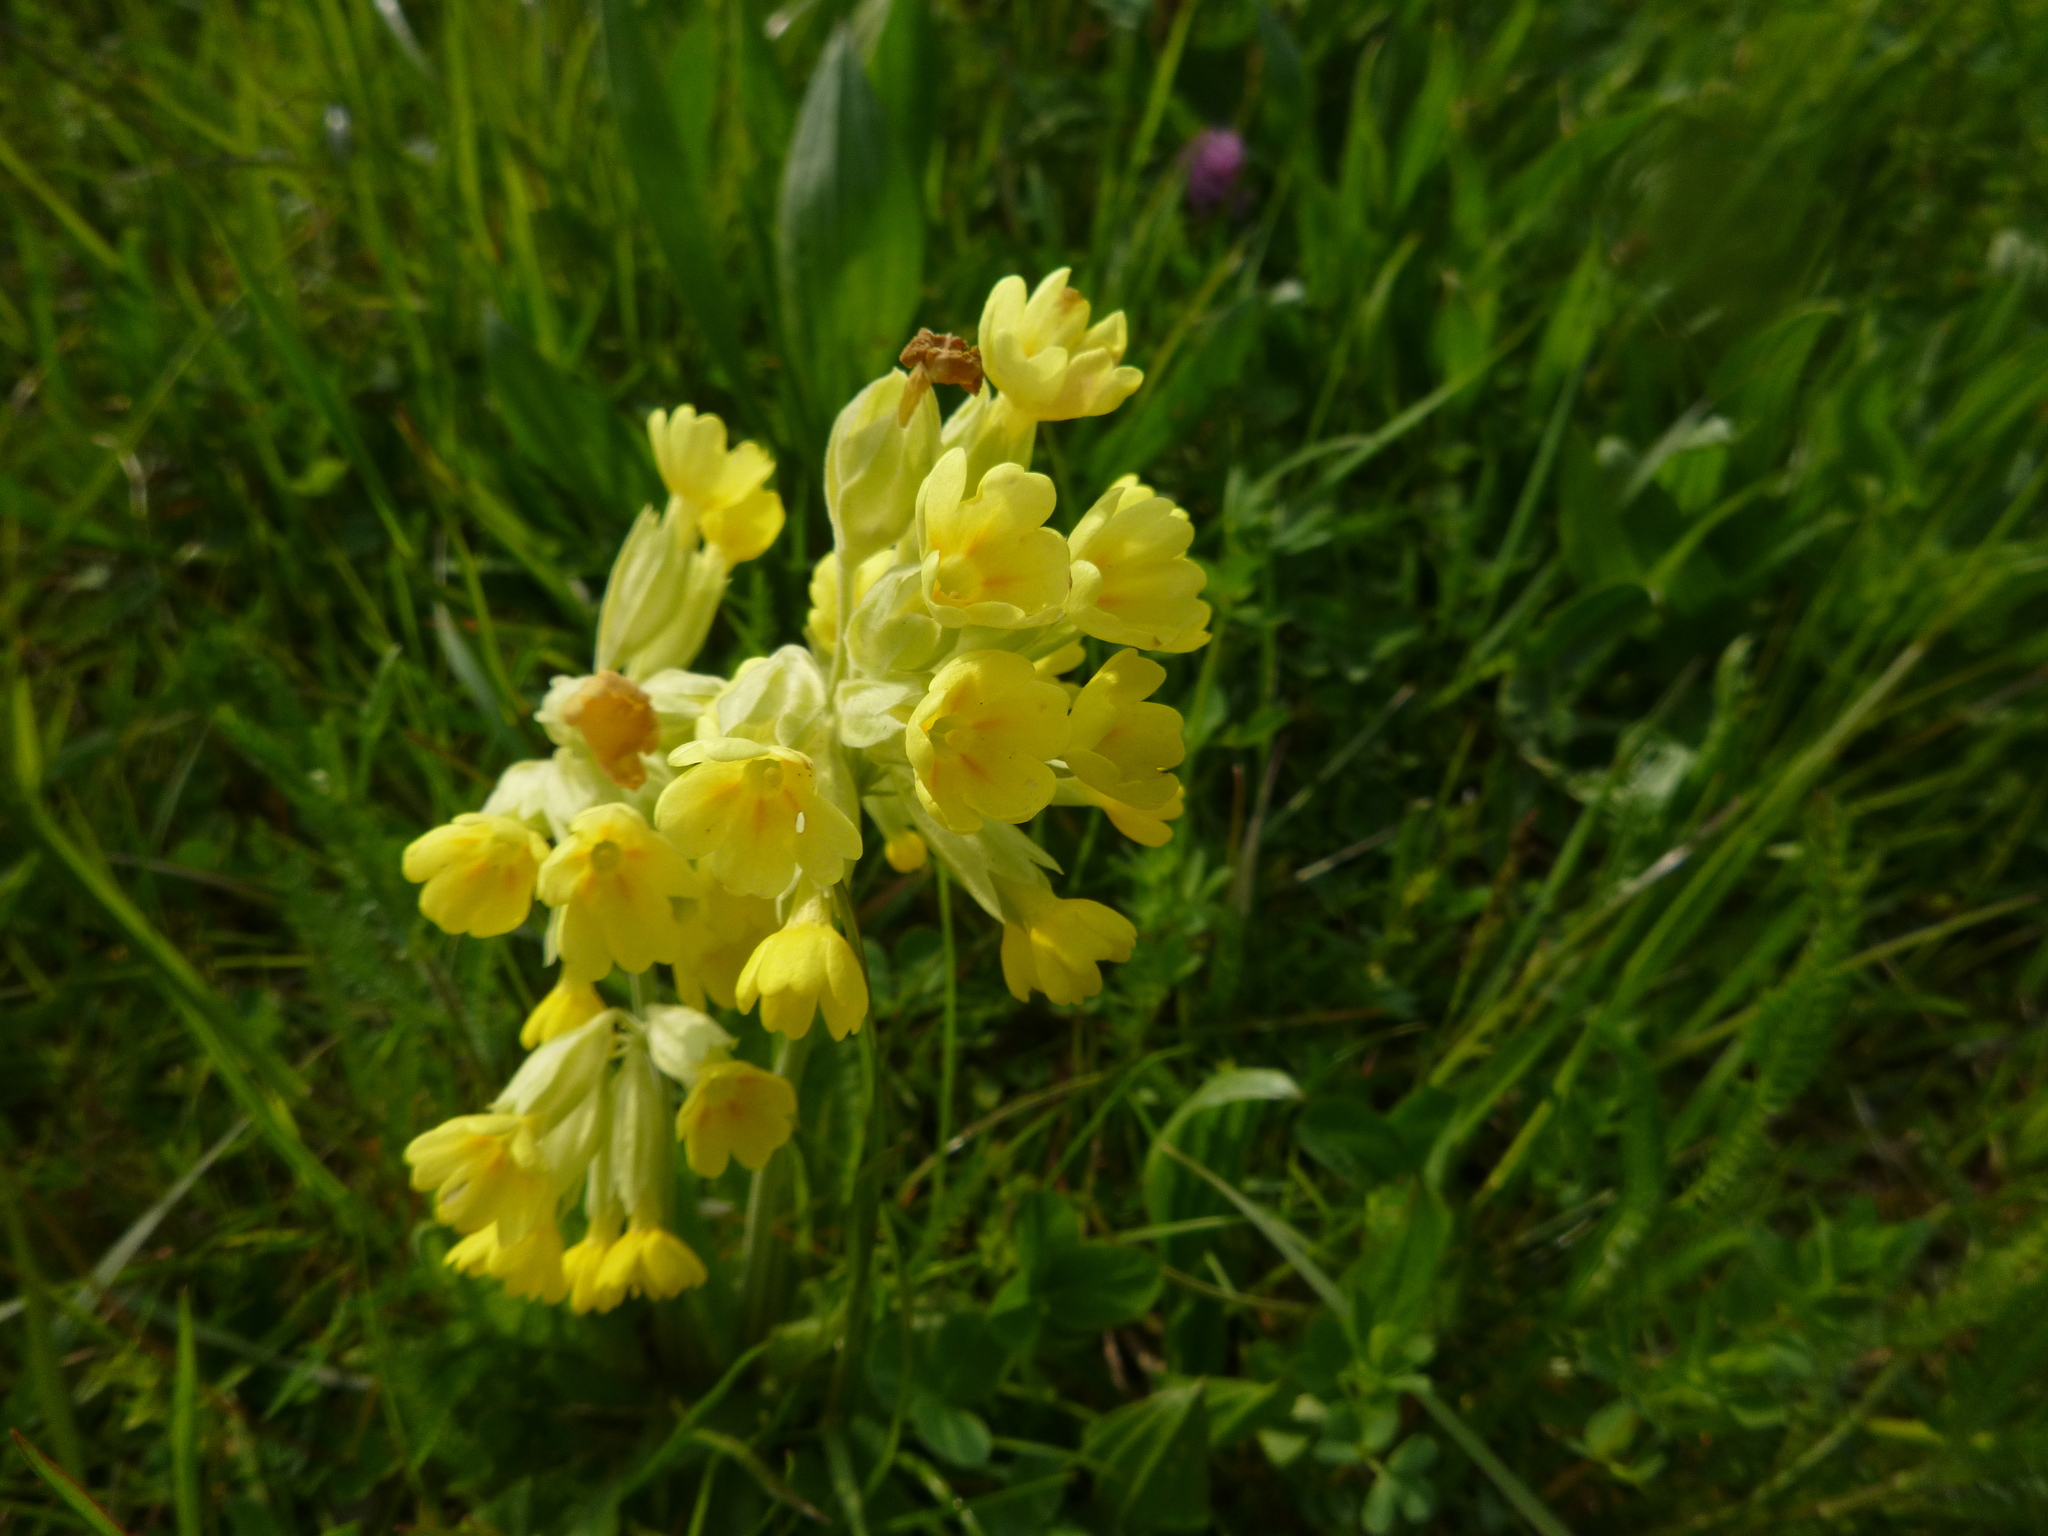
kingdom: Plantae
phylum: Tracheophyta
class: Magnoliopsida
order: Ericales
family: Primulaceae
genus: Primula
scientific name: Primula veris
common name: Cowslip
